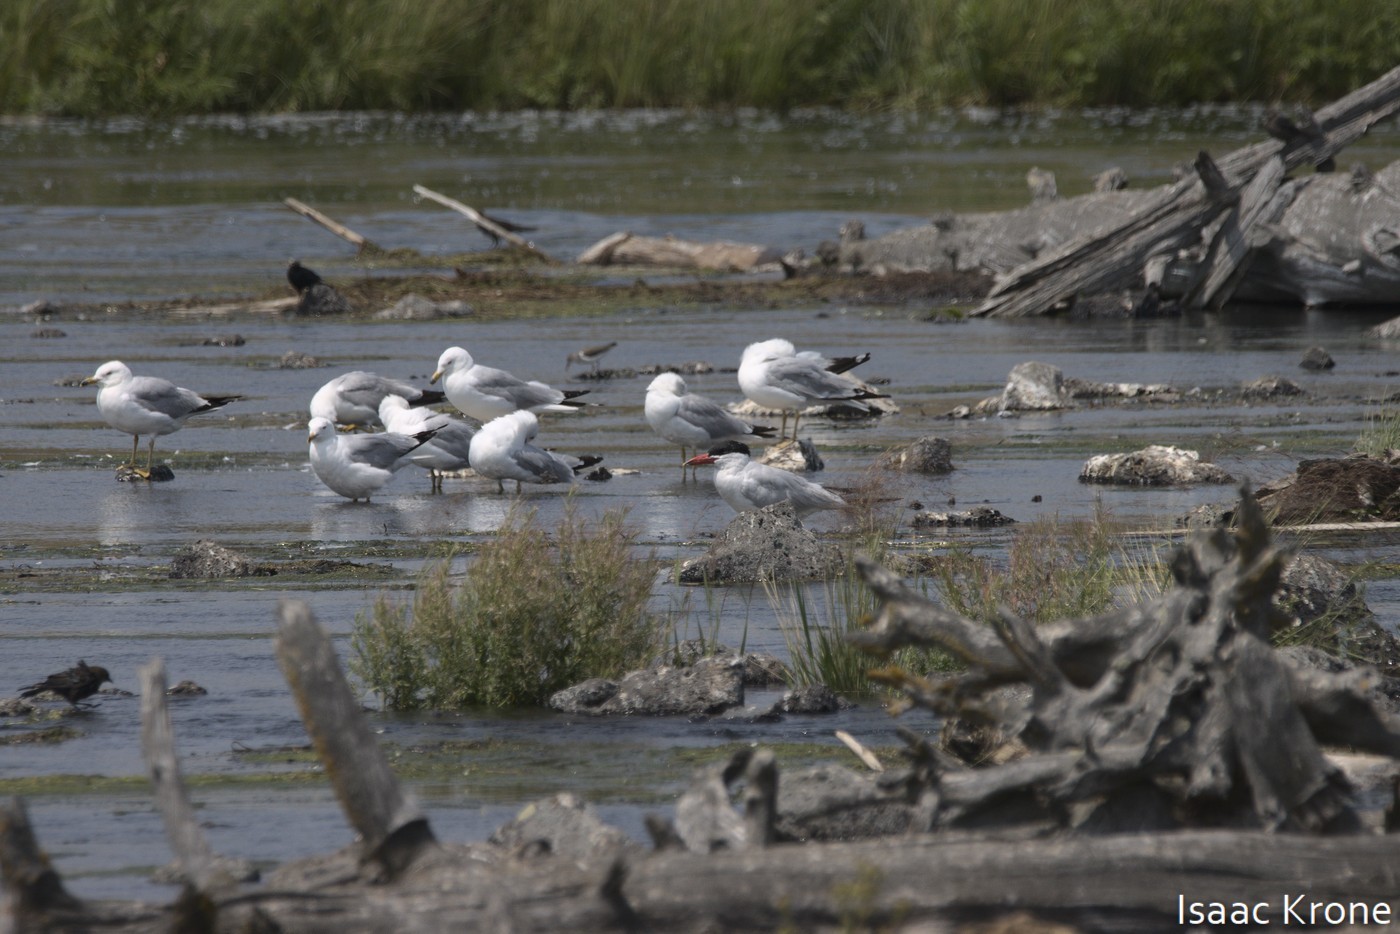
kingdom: Animalia
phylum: Chordata
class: Aves
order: Charadriiformes
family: Laridae
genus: Hydroprogne
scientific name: Hydroprogne caspia
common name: Caspian tern
